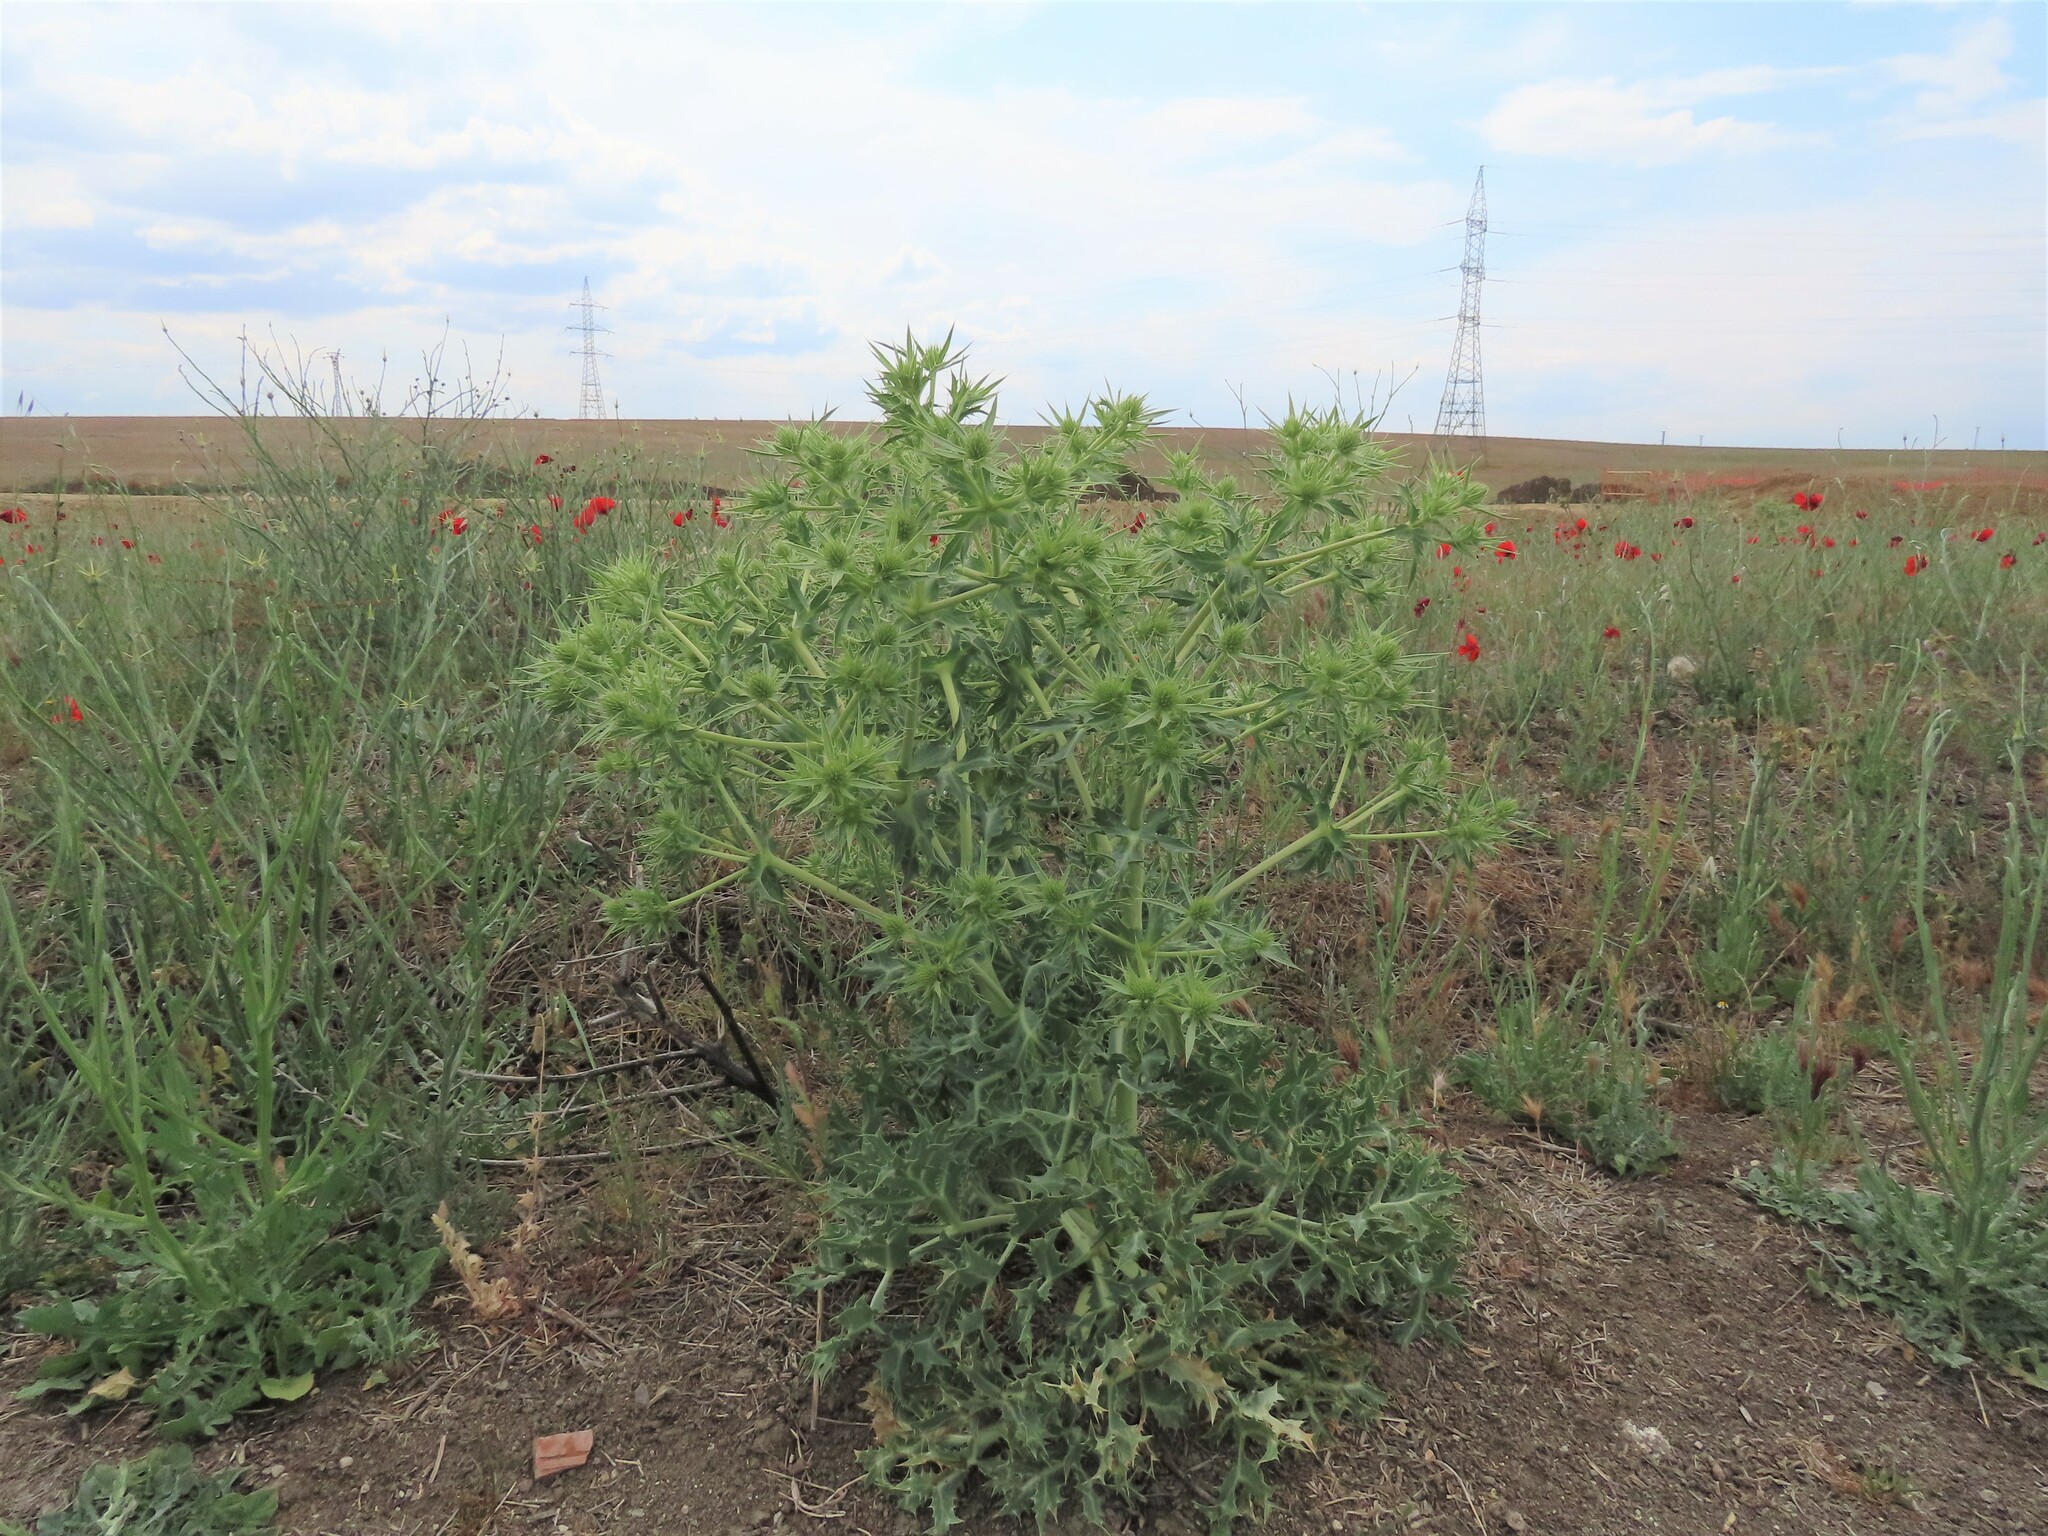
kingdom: Plantae
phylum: Tracheophyta
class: Magnoliopsida
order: Apiales
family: Apiaceae
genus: Eryngium
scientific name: Eryngium campestre
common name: Field eryngo
